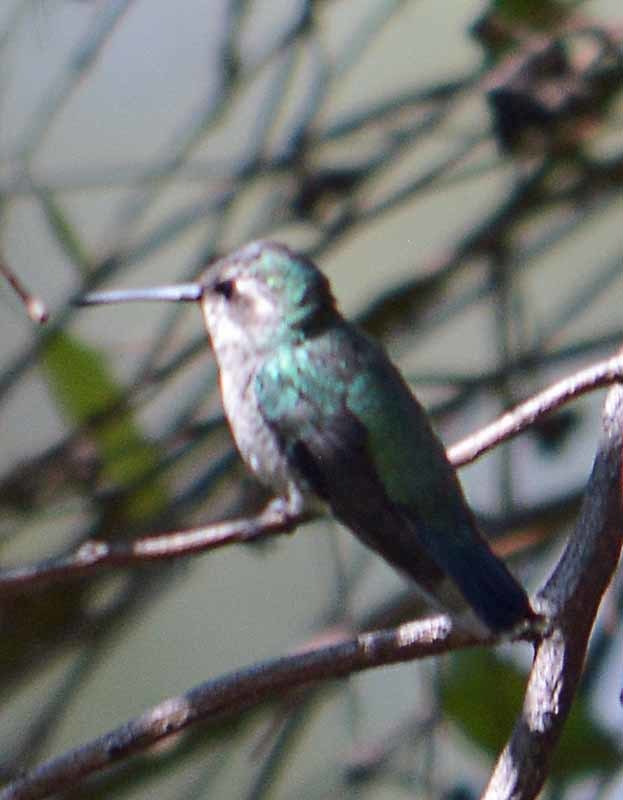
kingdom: Animalia
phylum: Chordata
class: Aves
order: Apodiformes
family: Trochilidae
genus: Cynanthus
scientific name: Cynanthus latirostris
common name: Broad-billed hummingbird
